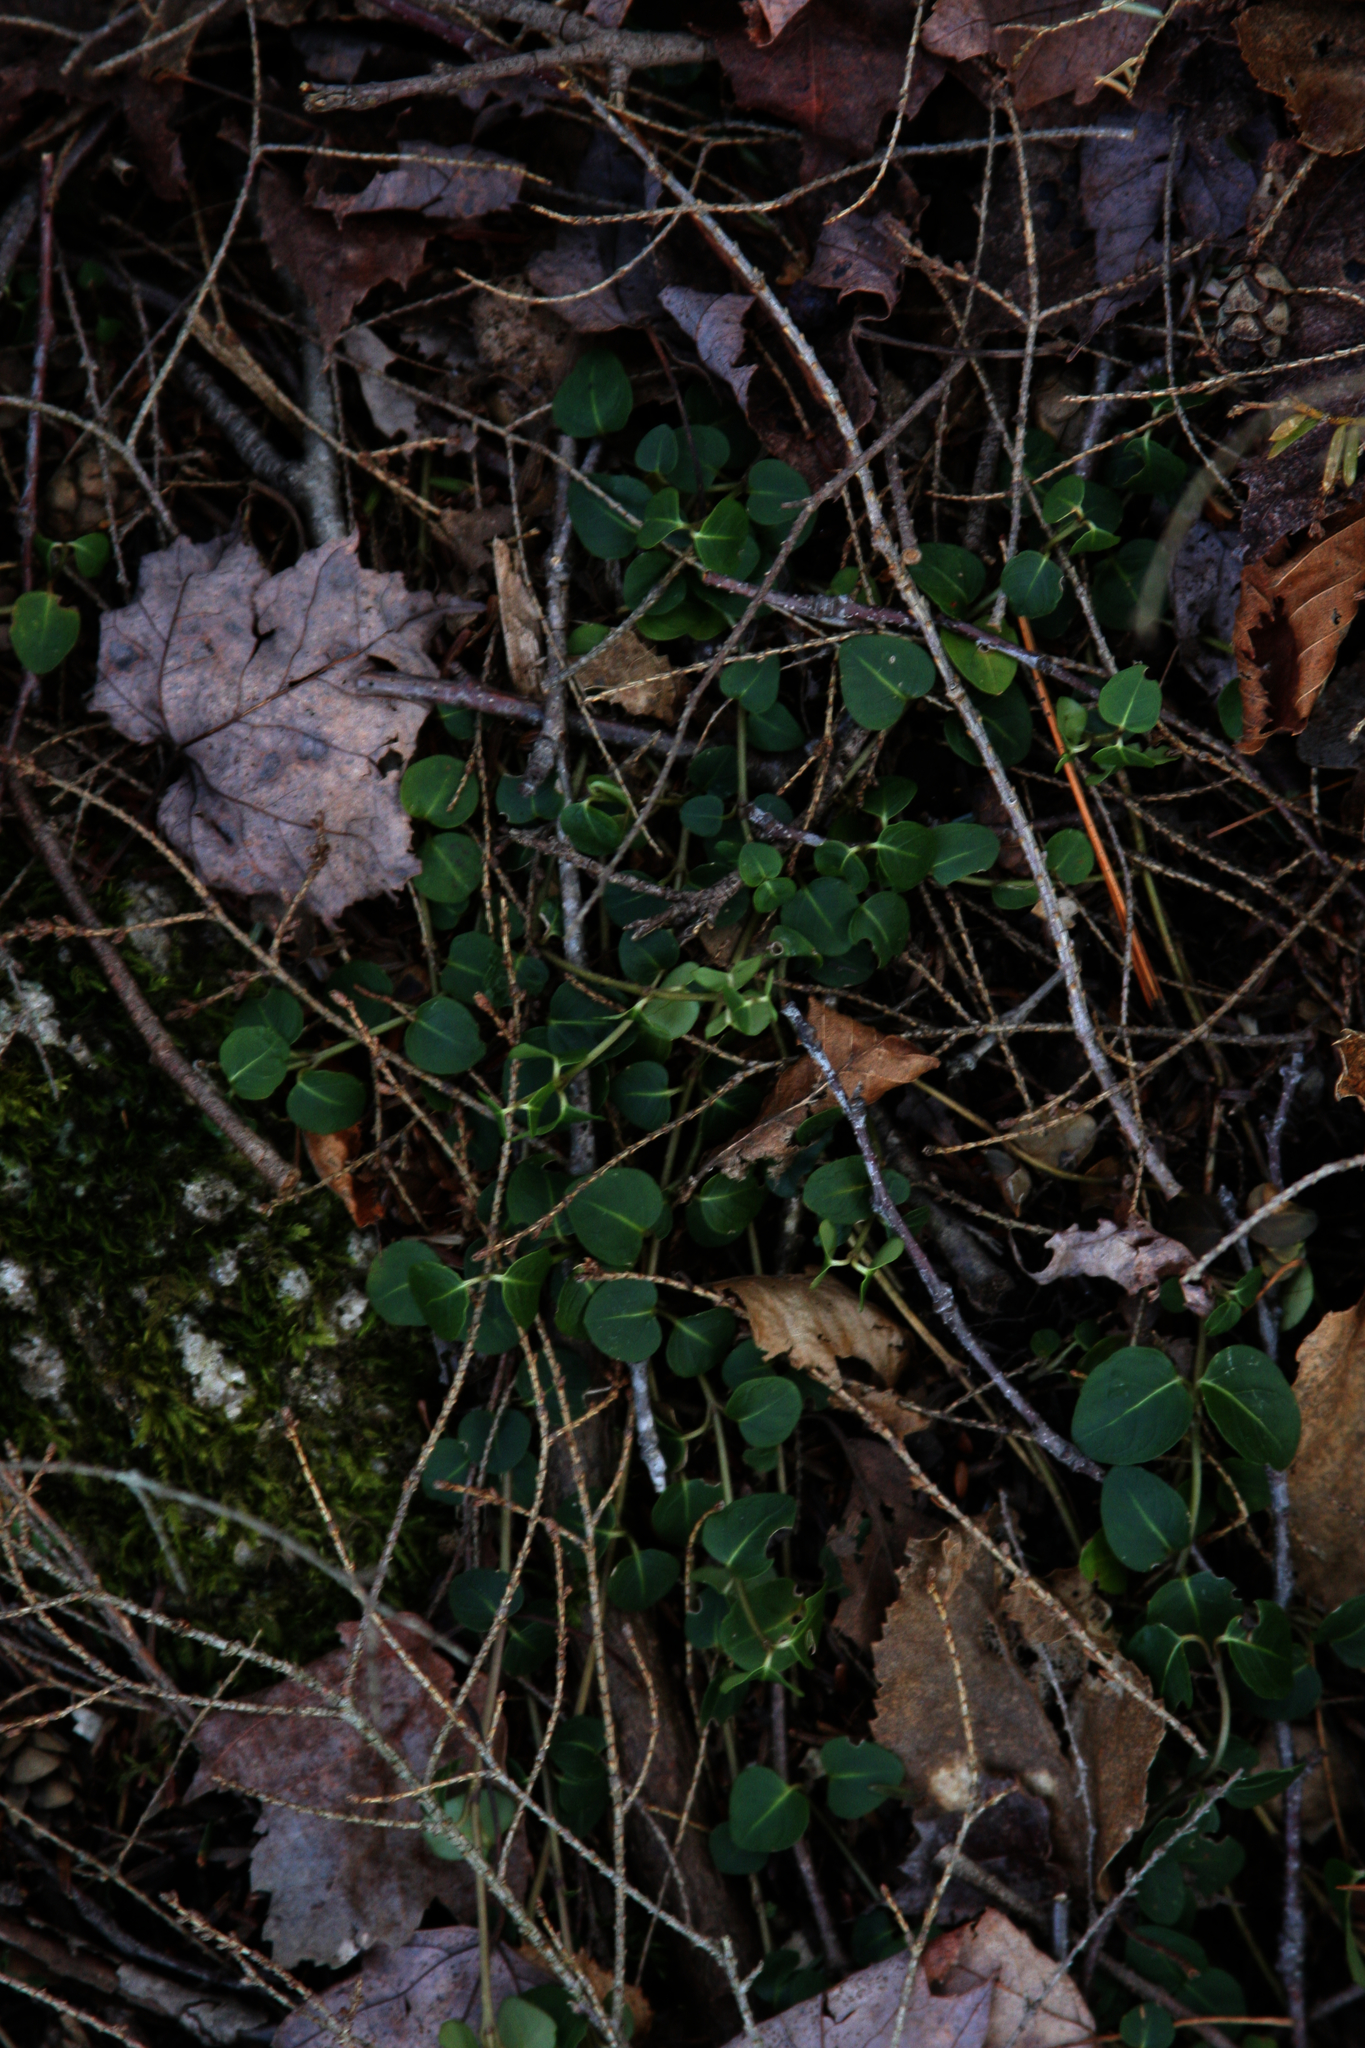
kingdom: Plantae
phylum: Tracheophyta
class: Magnoliopsida
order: Gentianales
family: Rubiaceae
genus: Mitchella
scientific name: Mitchella repens
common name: Partridge-berry
